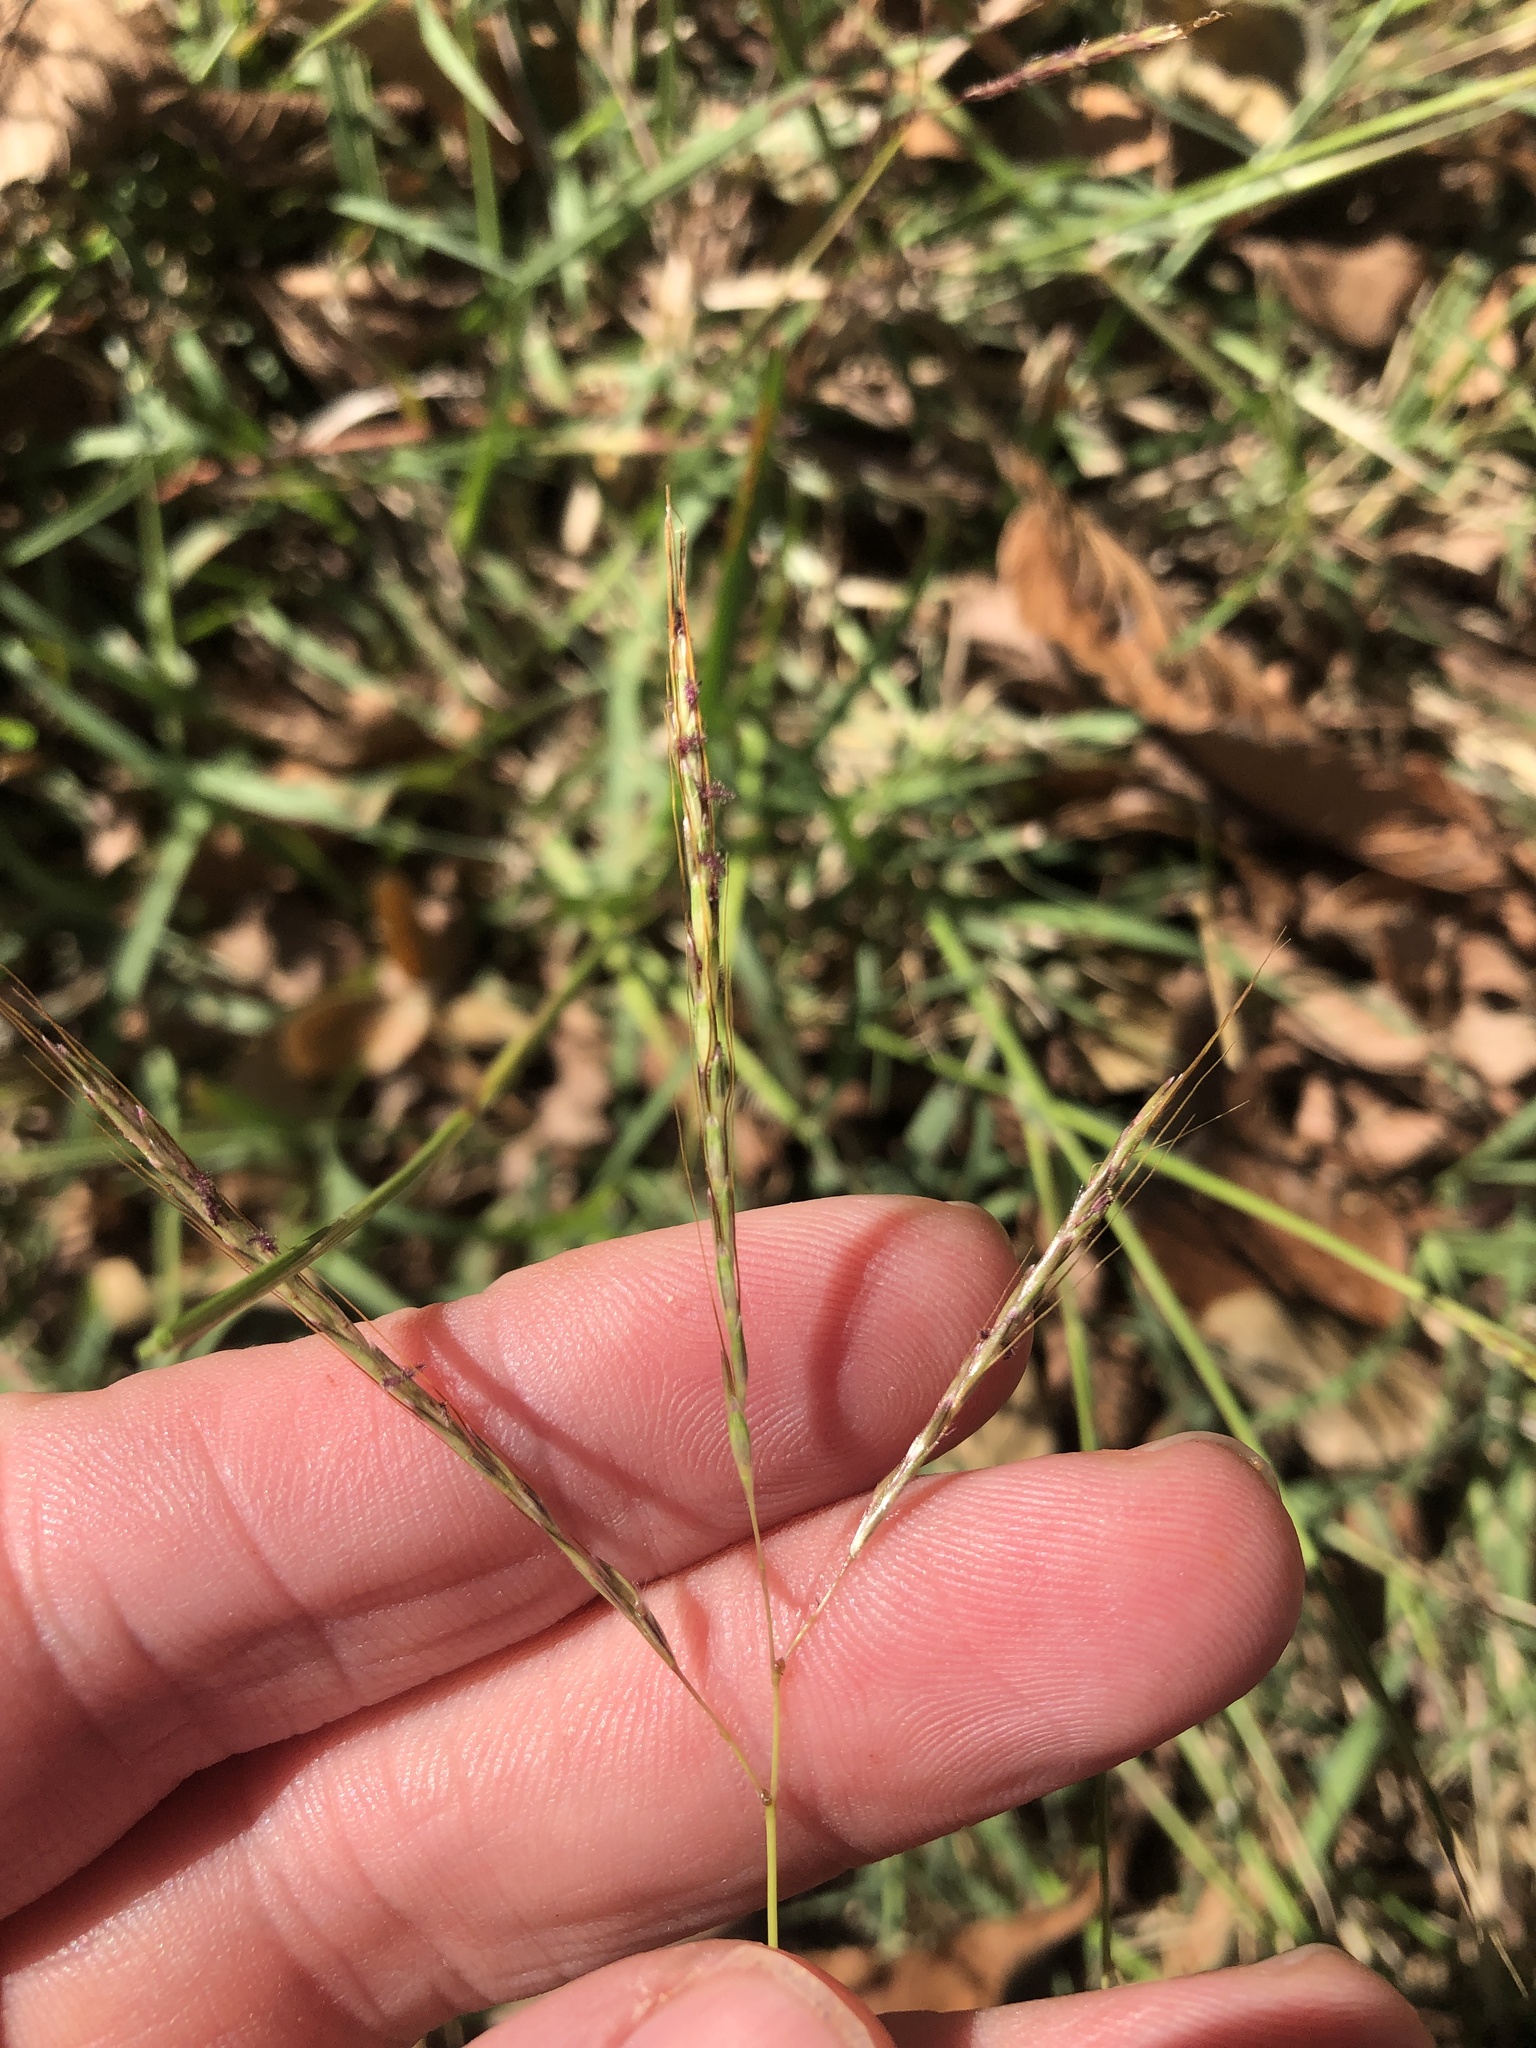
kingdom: Plantae
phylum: Tracheophyta
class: Liliopsida
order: Poales
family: Poaceae
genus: Bothriochloa
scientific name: Bothriochloa ischaemum
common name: Yellow bluestem
